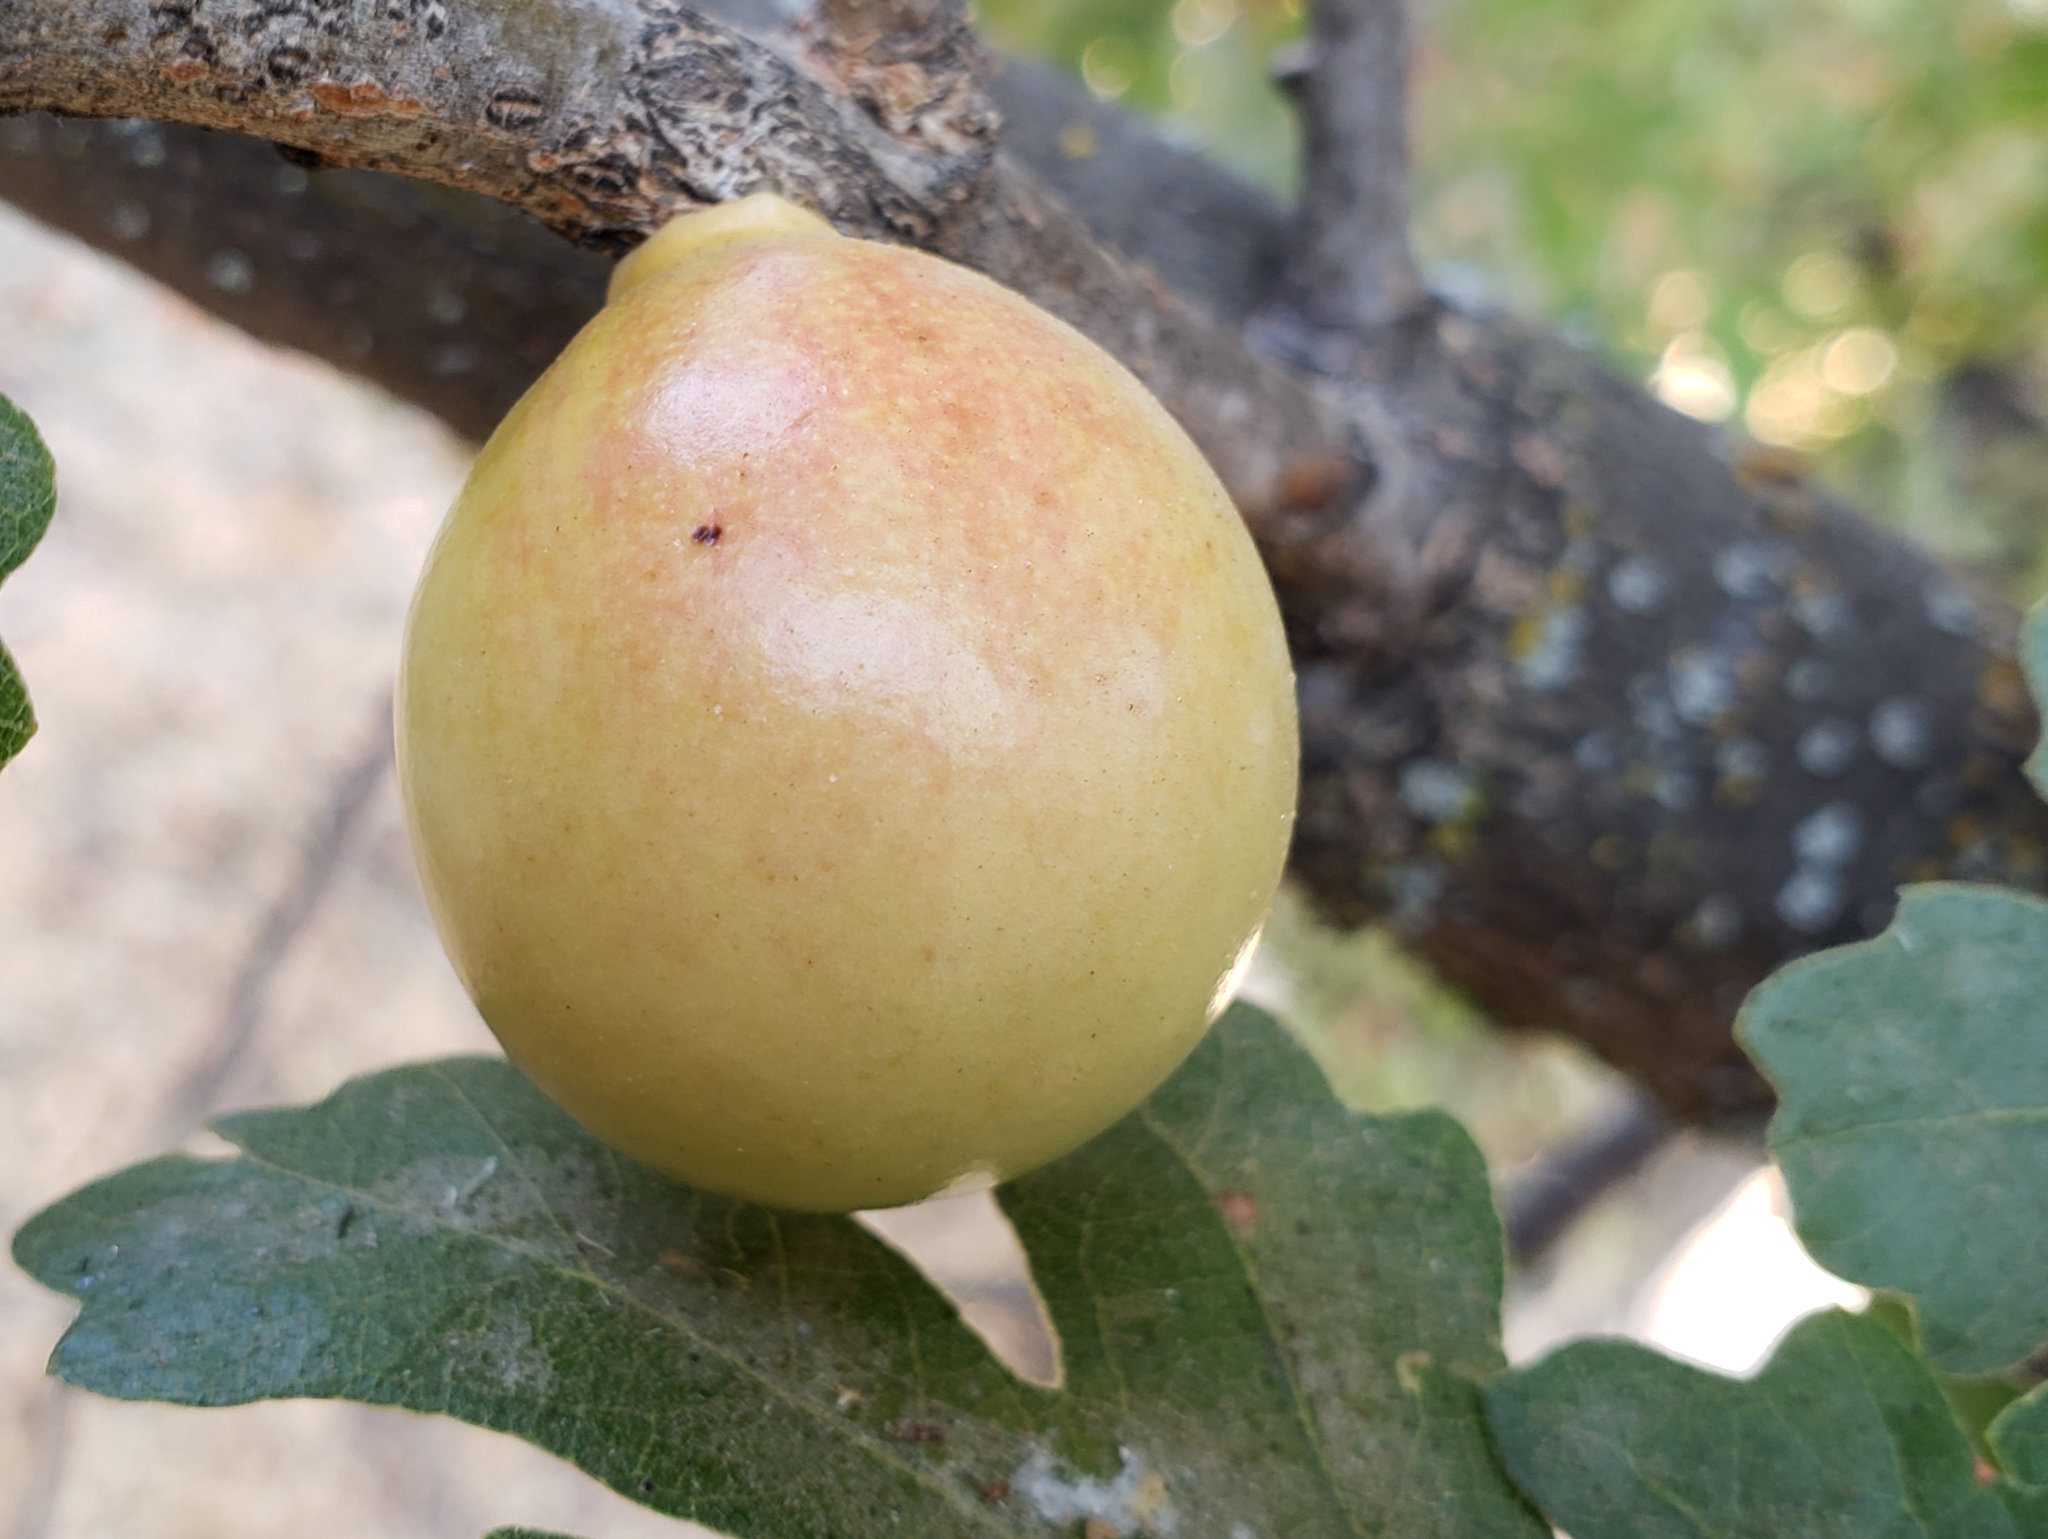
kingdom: Animalia
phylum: Arthropoda
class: Insecta
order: Hymenoptera
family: Cynipidae
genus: Andricus
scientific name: Andricus quercuscalifornicus
